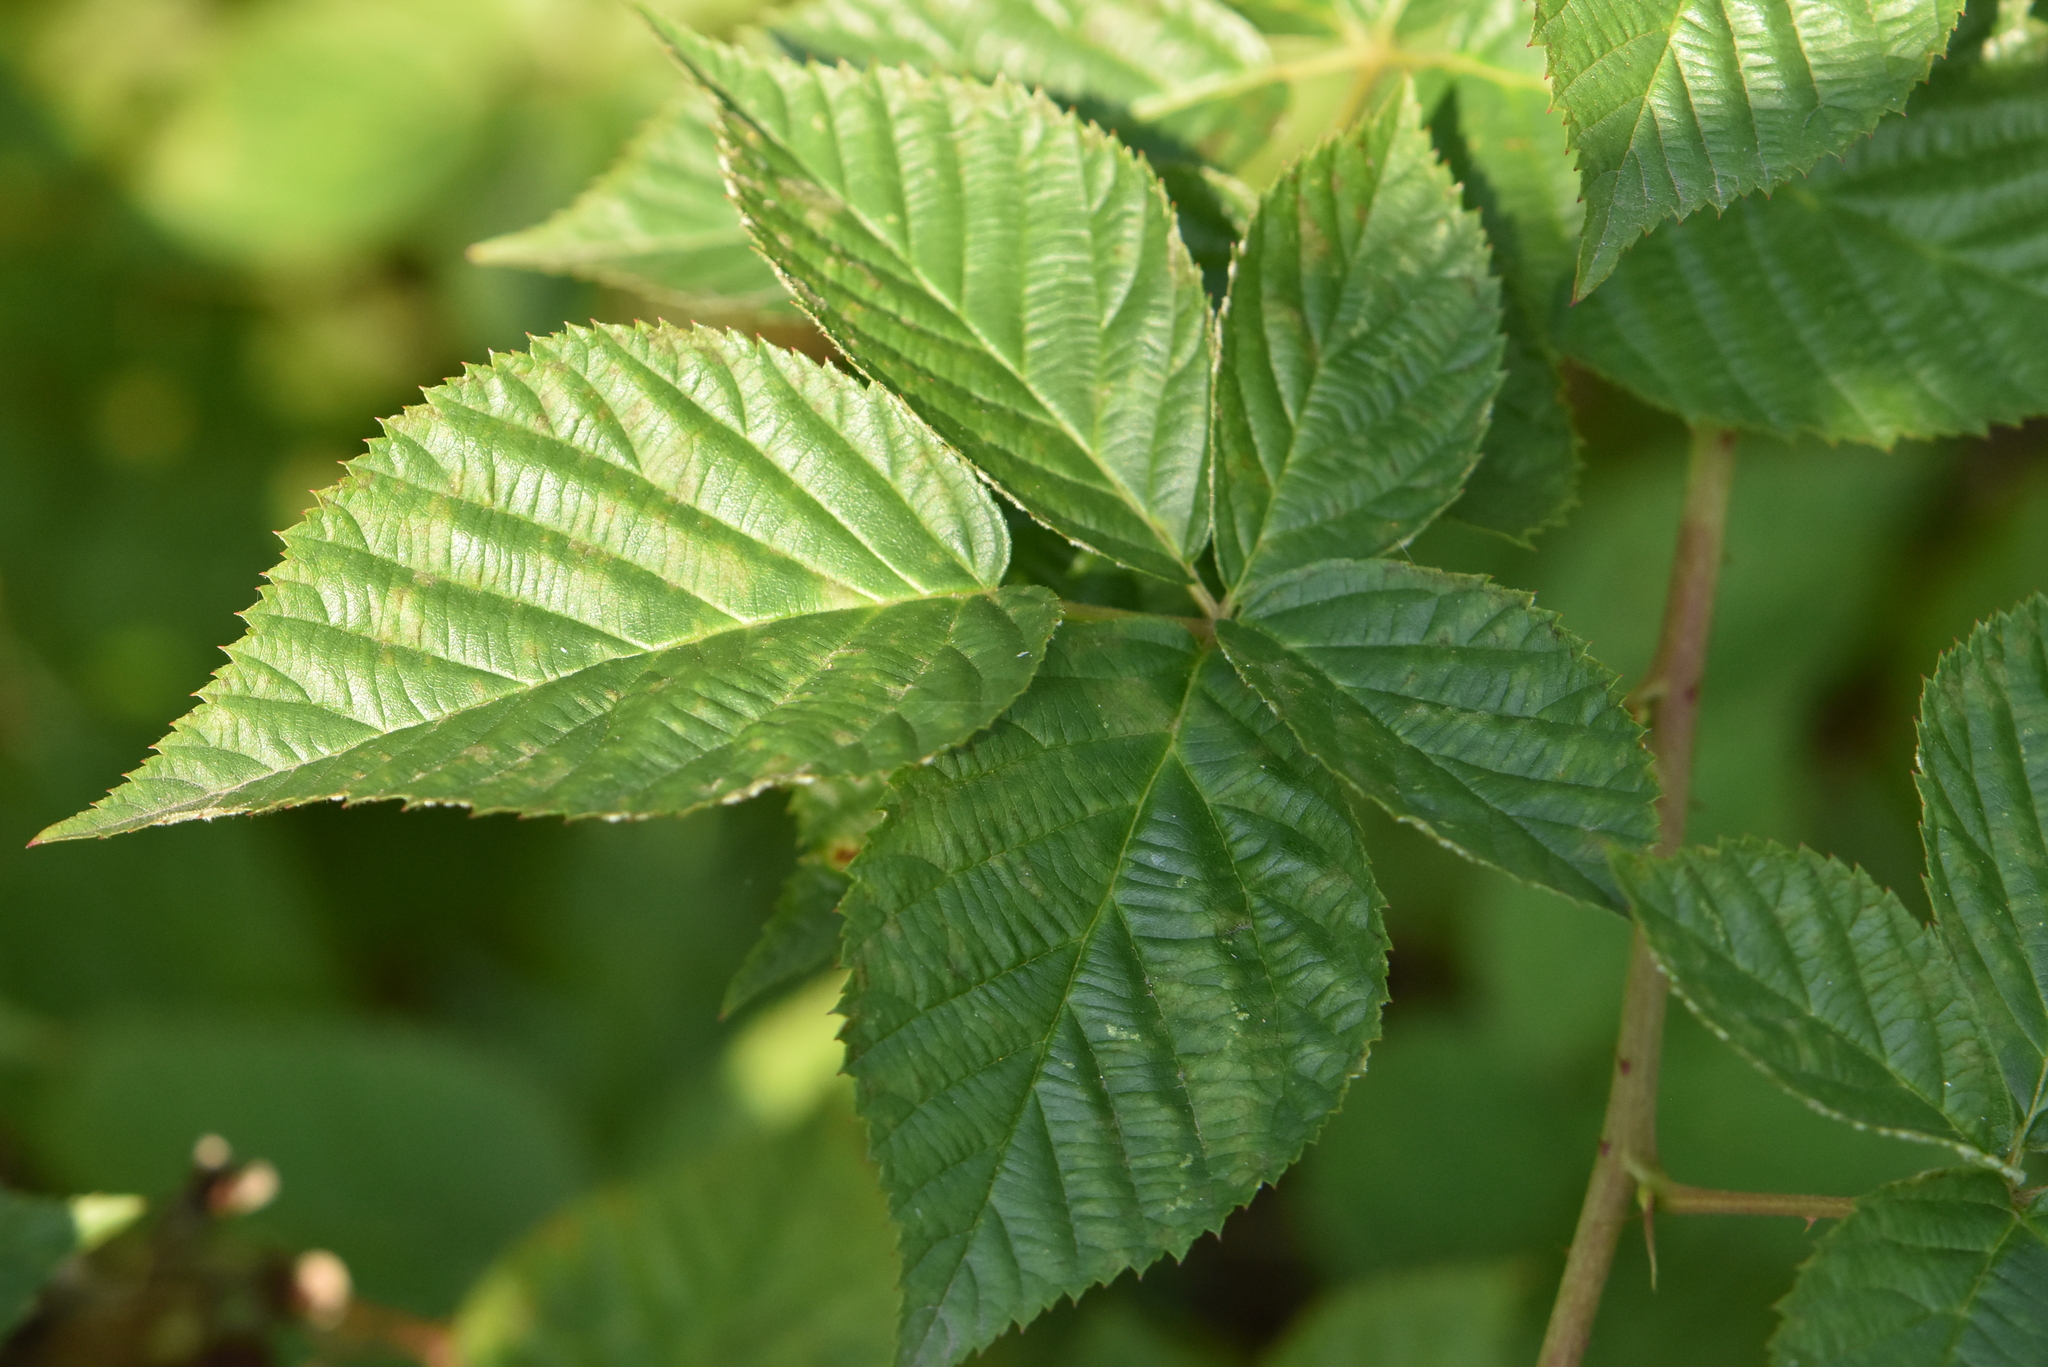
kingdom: Plantae
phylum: Tracheophyta
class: Magnoliopsida
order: Rosales
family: Rosaceae
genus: Rubus
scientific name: Rubus polonicus
